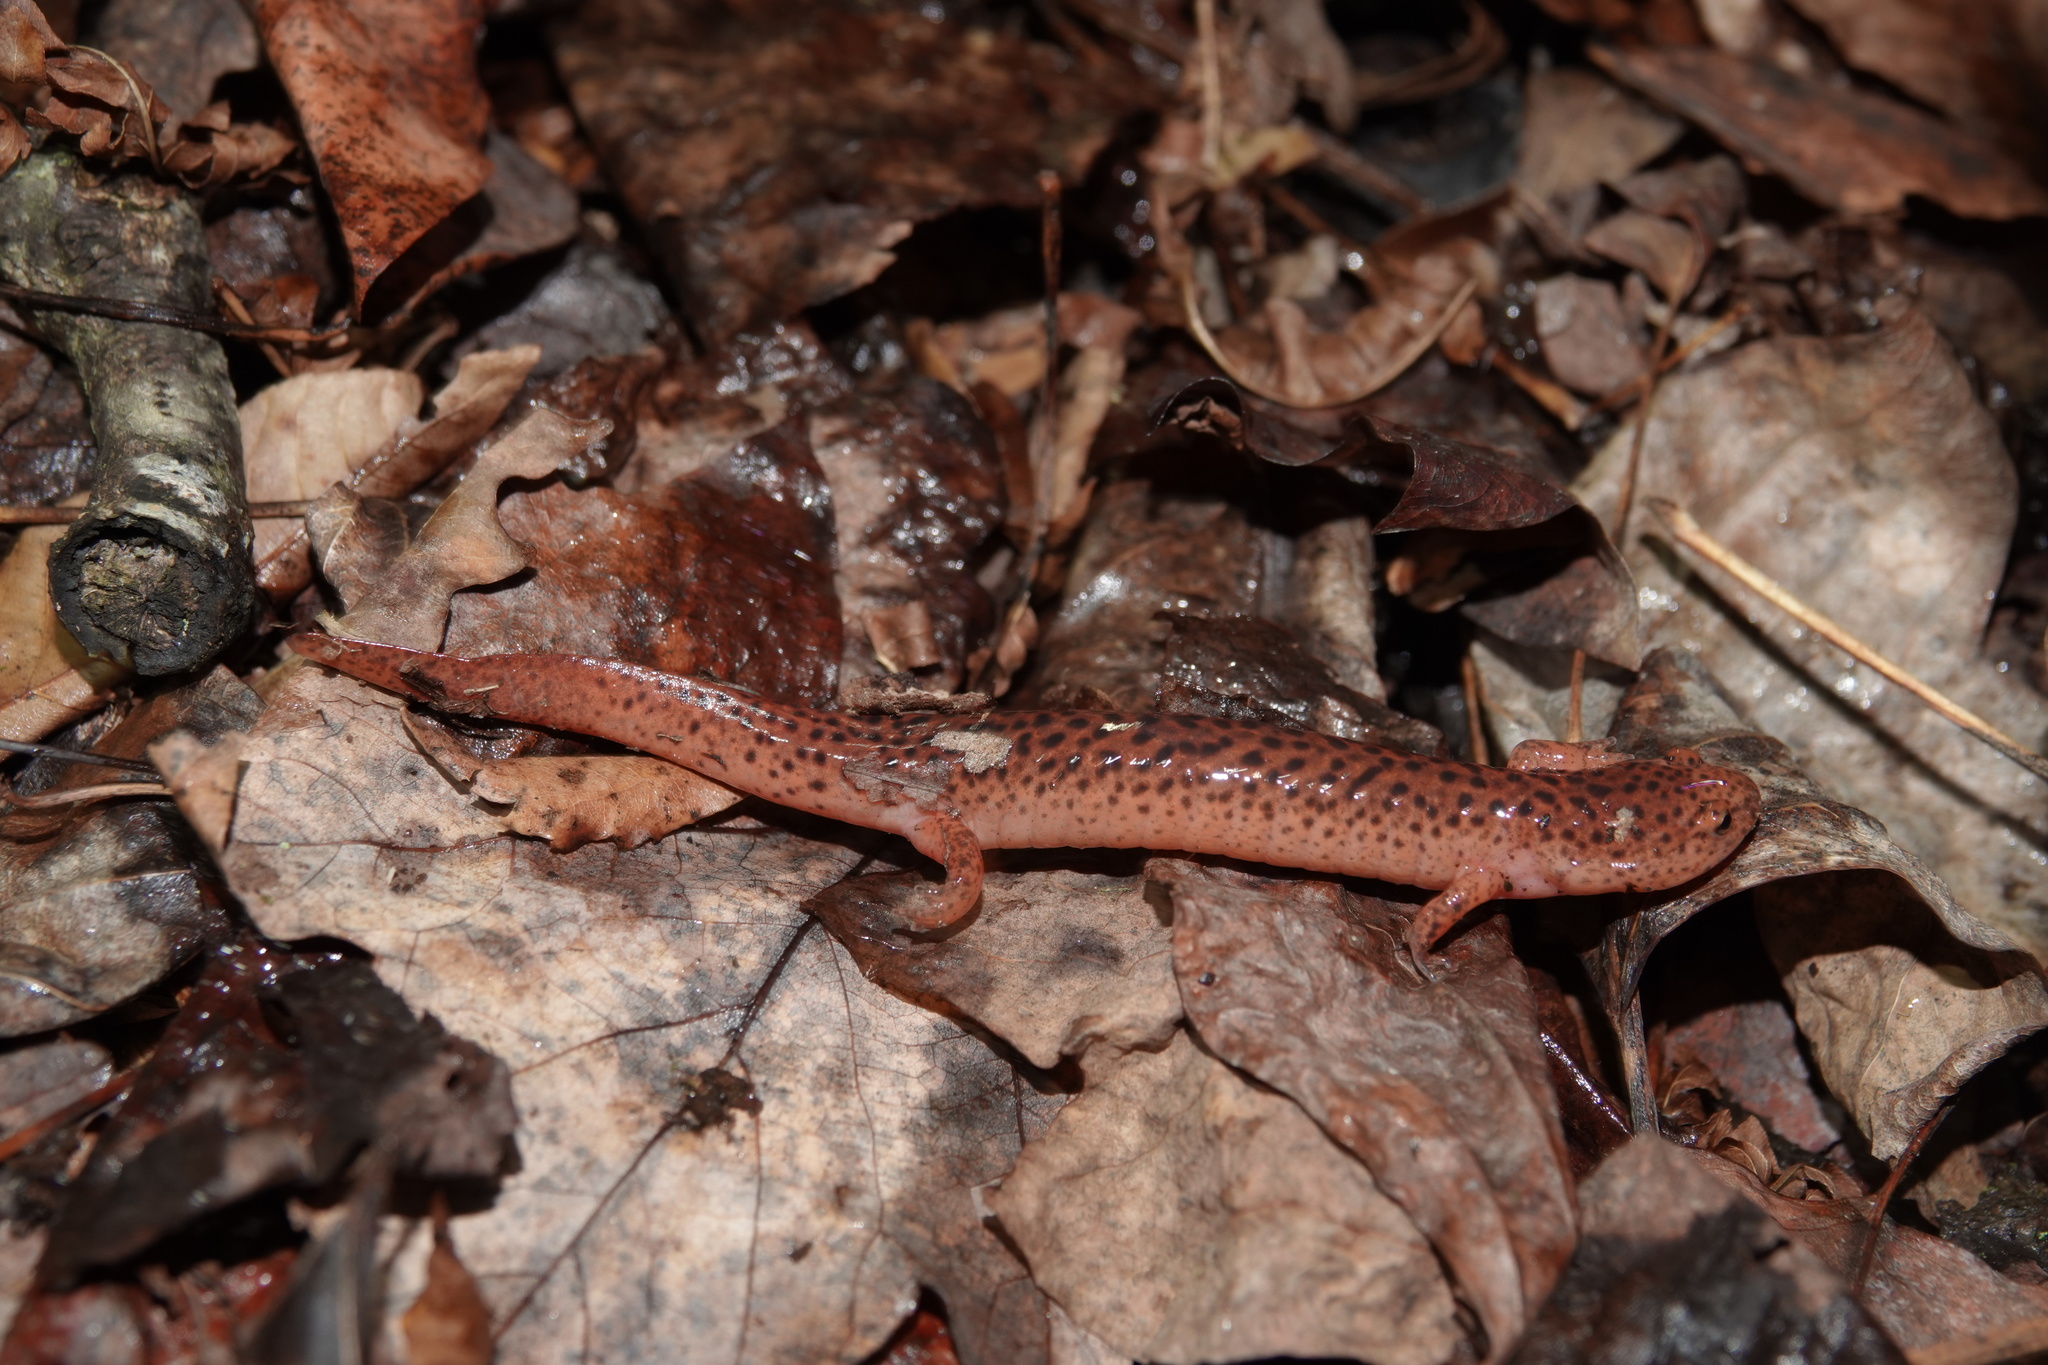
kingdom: Animalia
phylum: Chordata
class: Amphibia
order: Caudata
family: Plethodontidae
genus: Pseudotriton
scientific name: Pseudotriton ruber
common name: Red salamander
